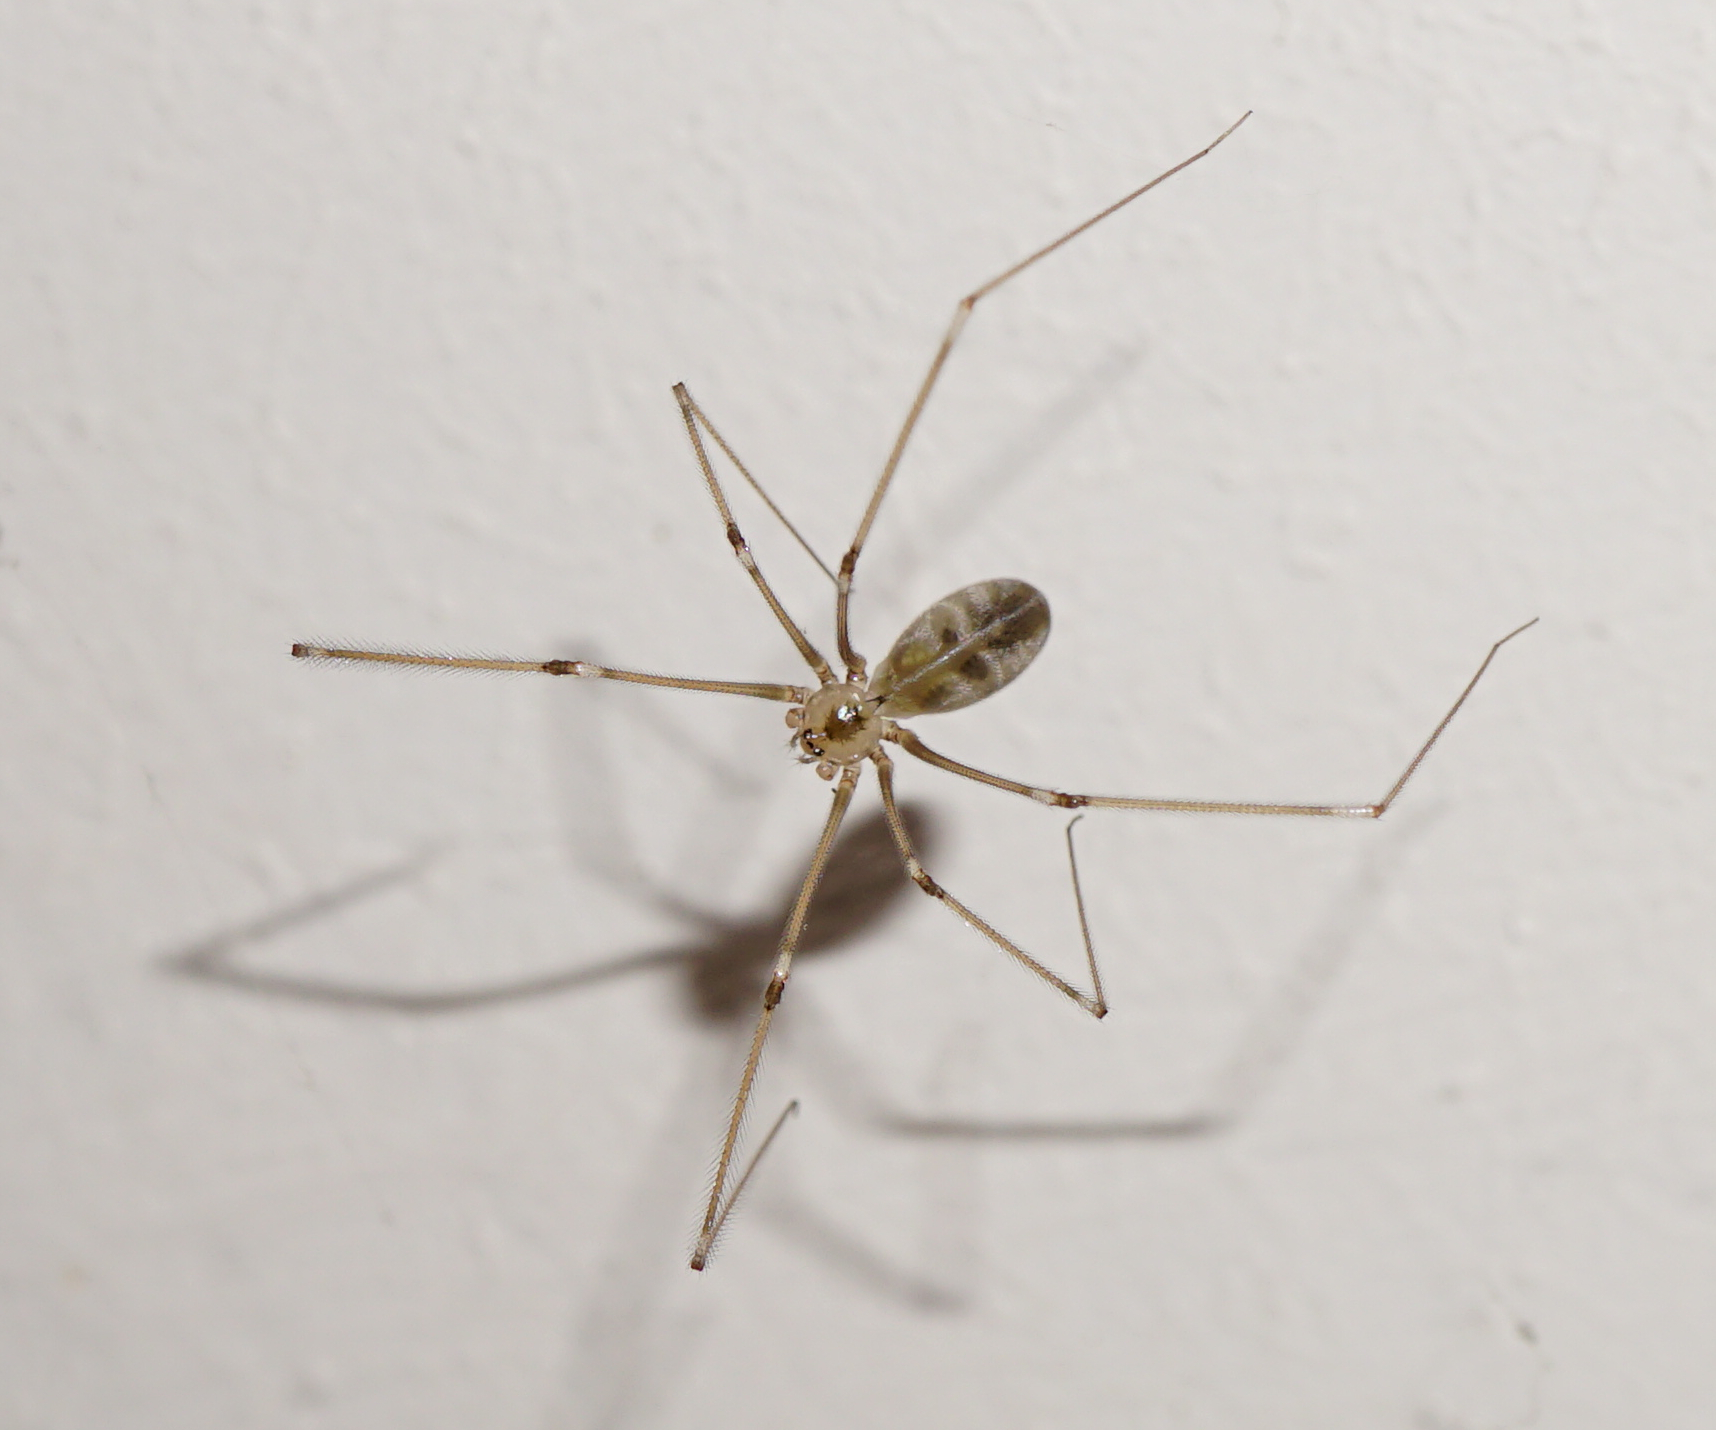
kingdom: Animalia
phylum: Arthropoda
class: Arachnida
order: Araneae
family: Pholcidae
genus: Pholcus
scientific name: Pholcus phalangioides
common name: Longbodied cellar spider
